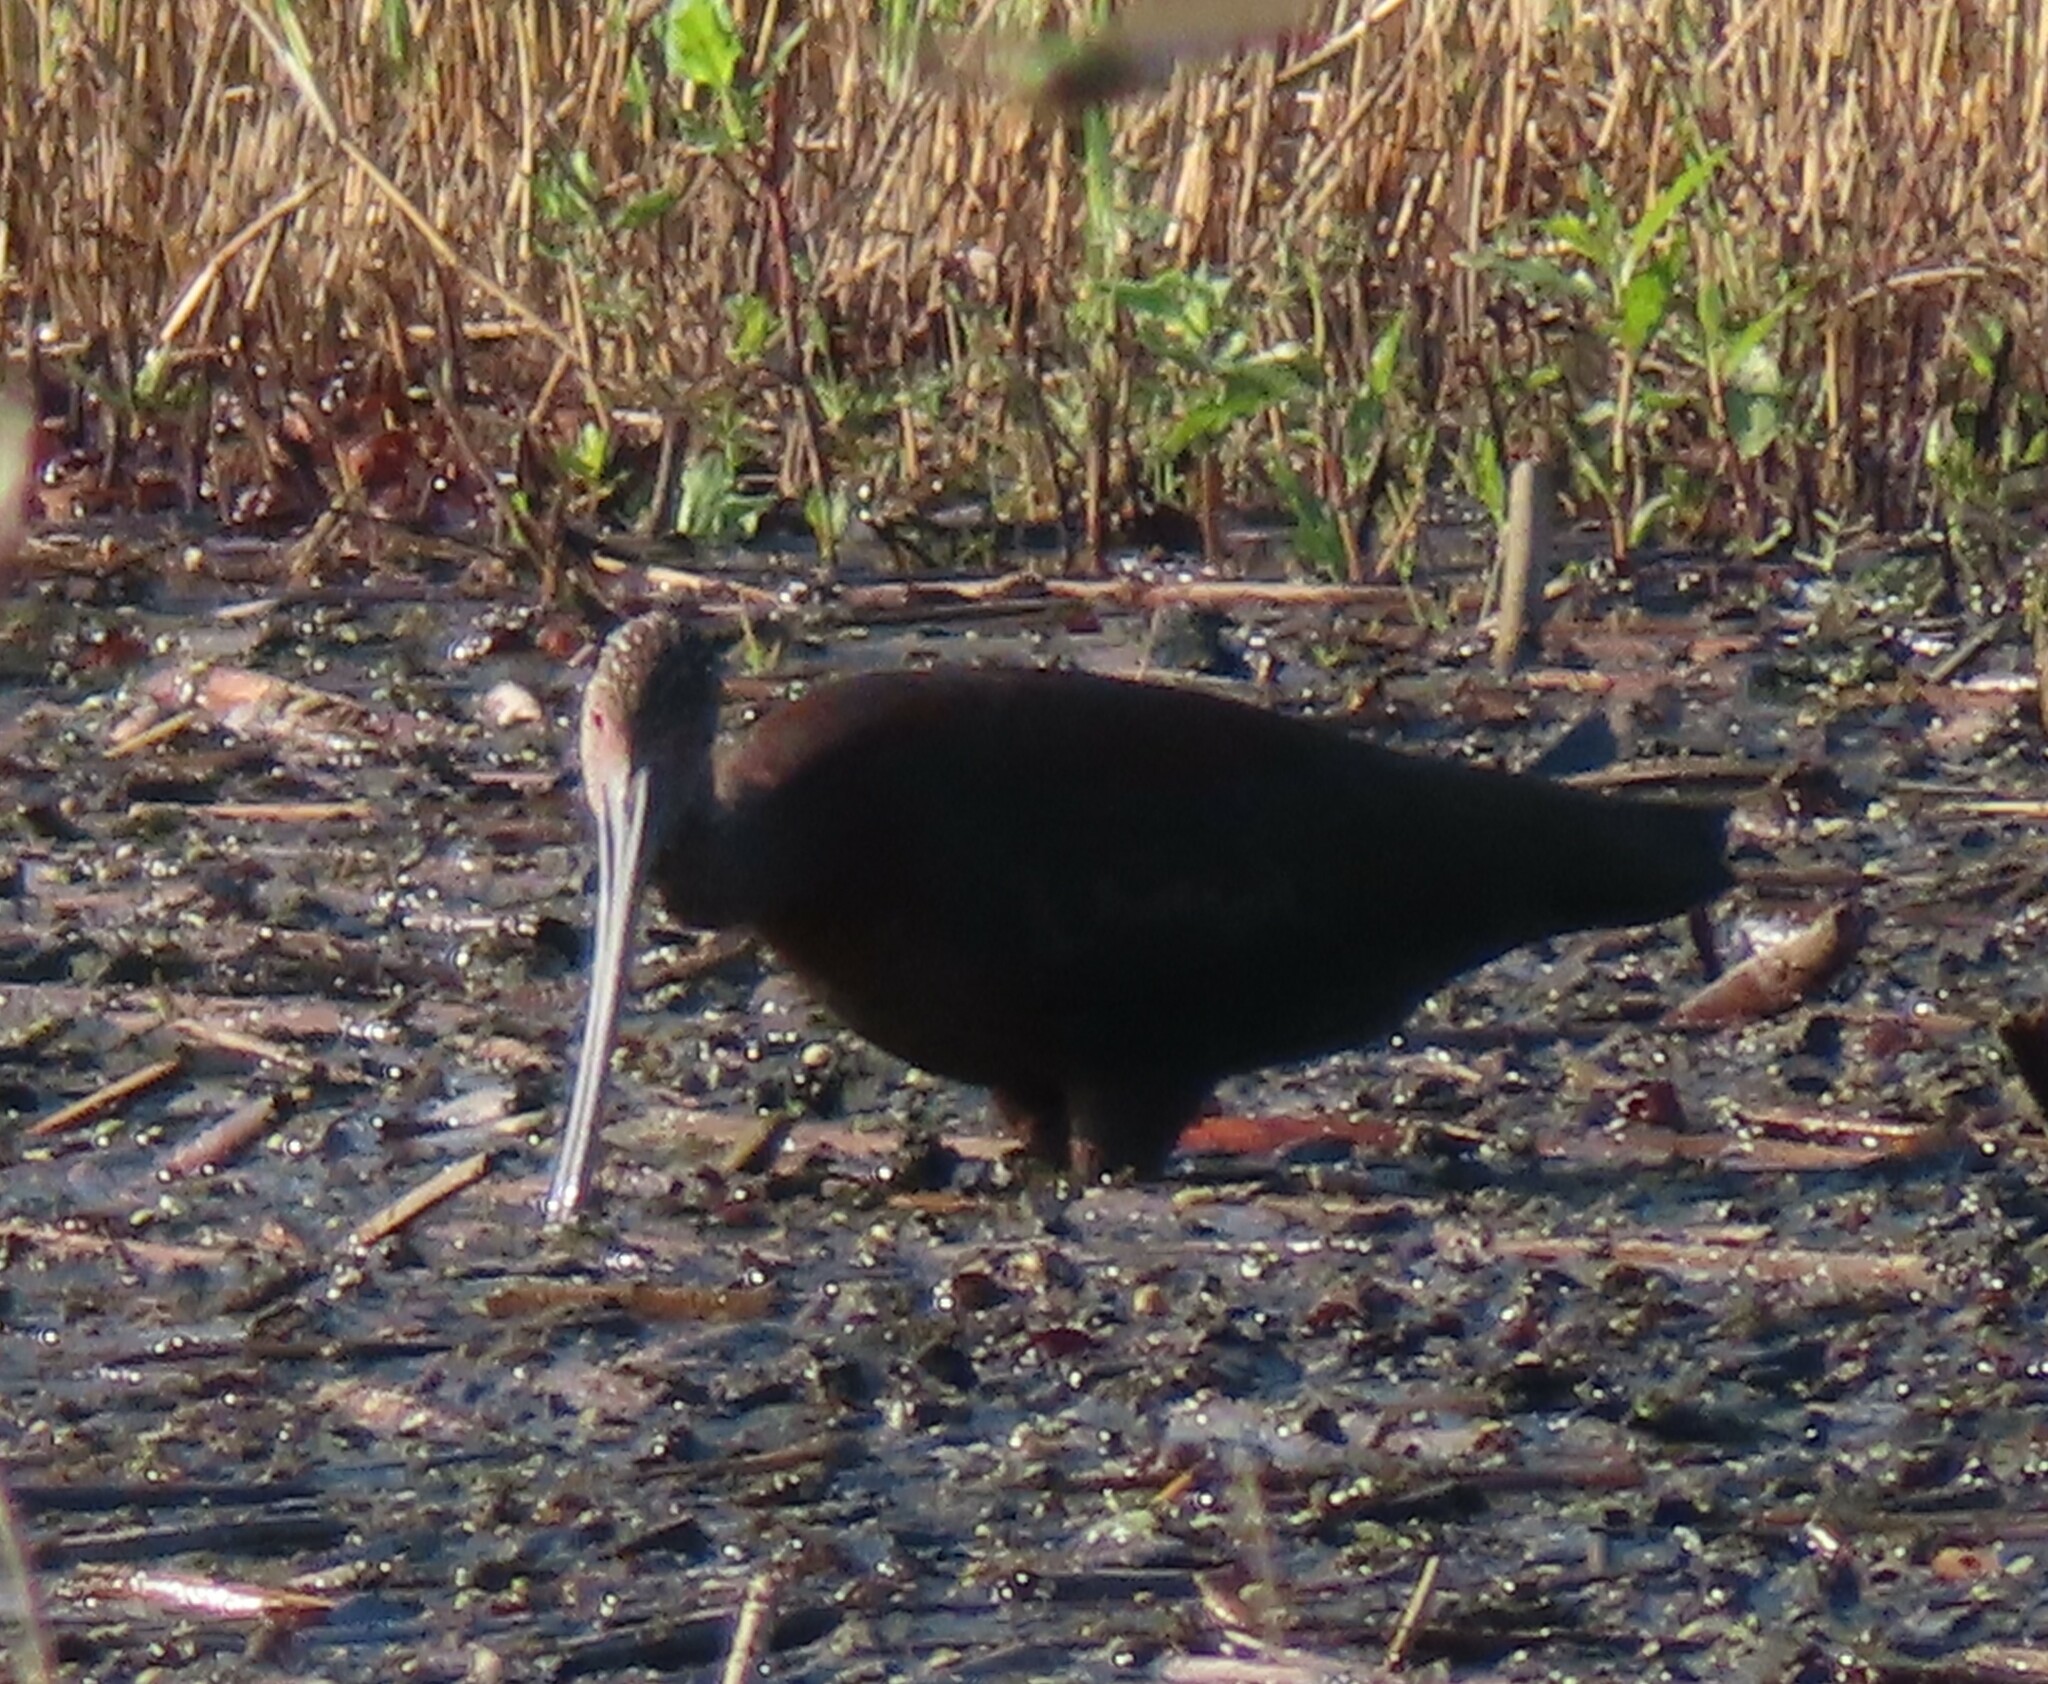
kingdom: Animalia
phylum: Chordata
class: Aves
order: Pelecaniformes
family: Threskiornithidae
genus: Plegadis
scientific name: Plegadis chihi
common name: White-faced ibis
